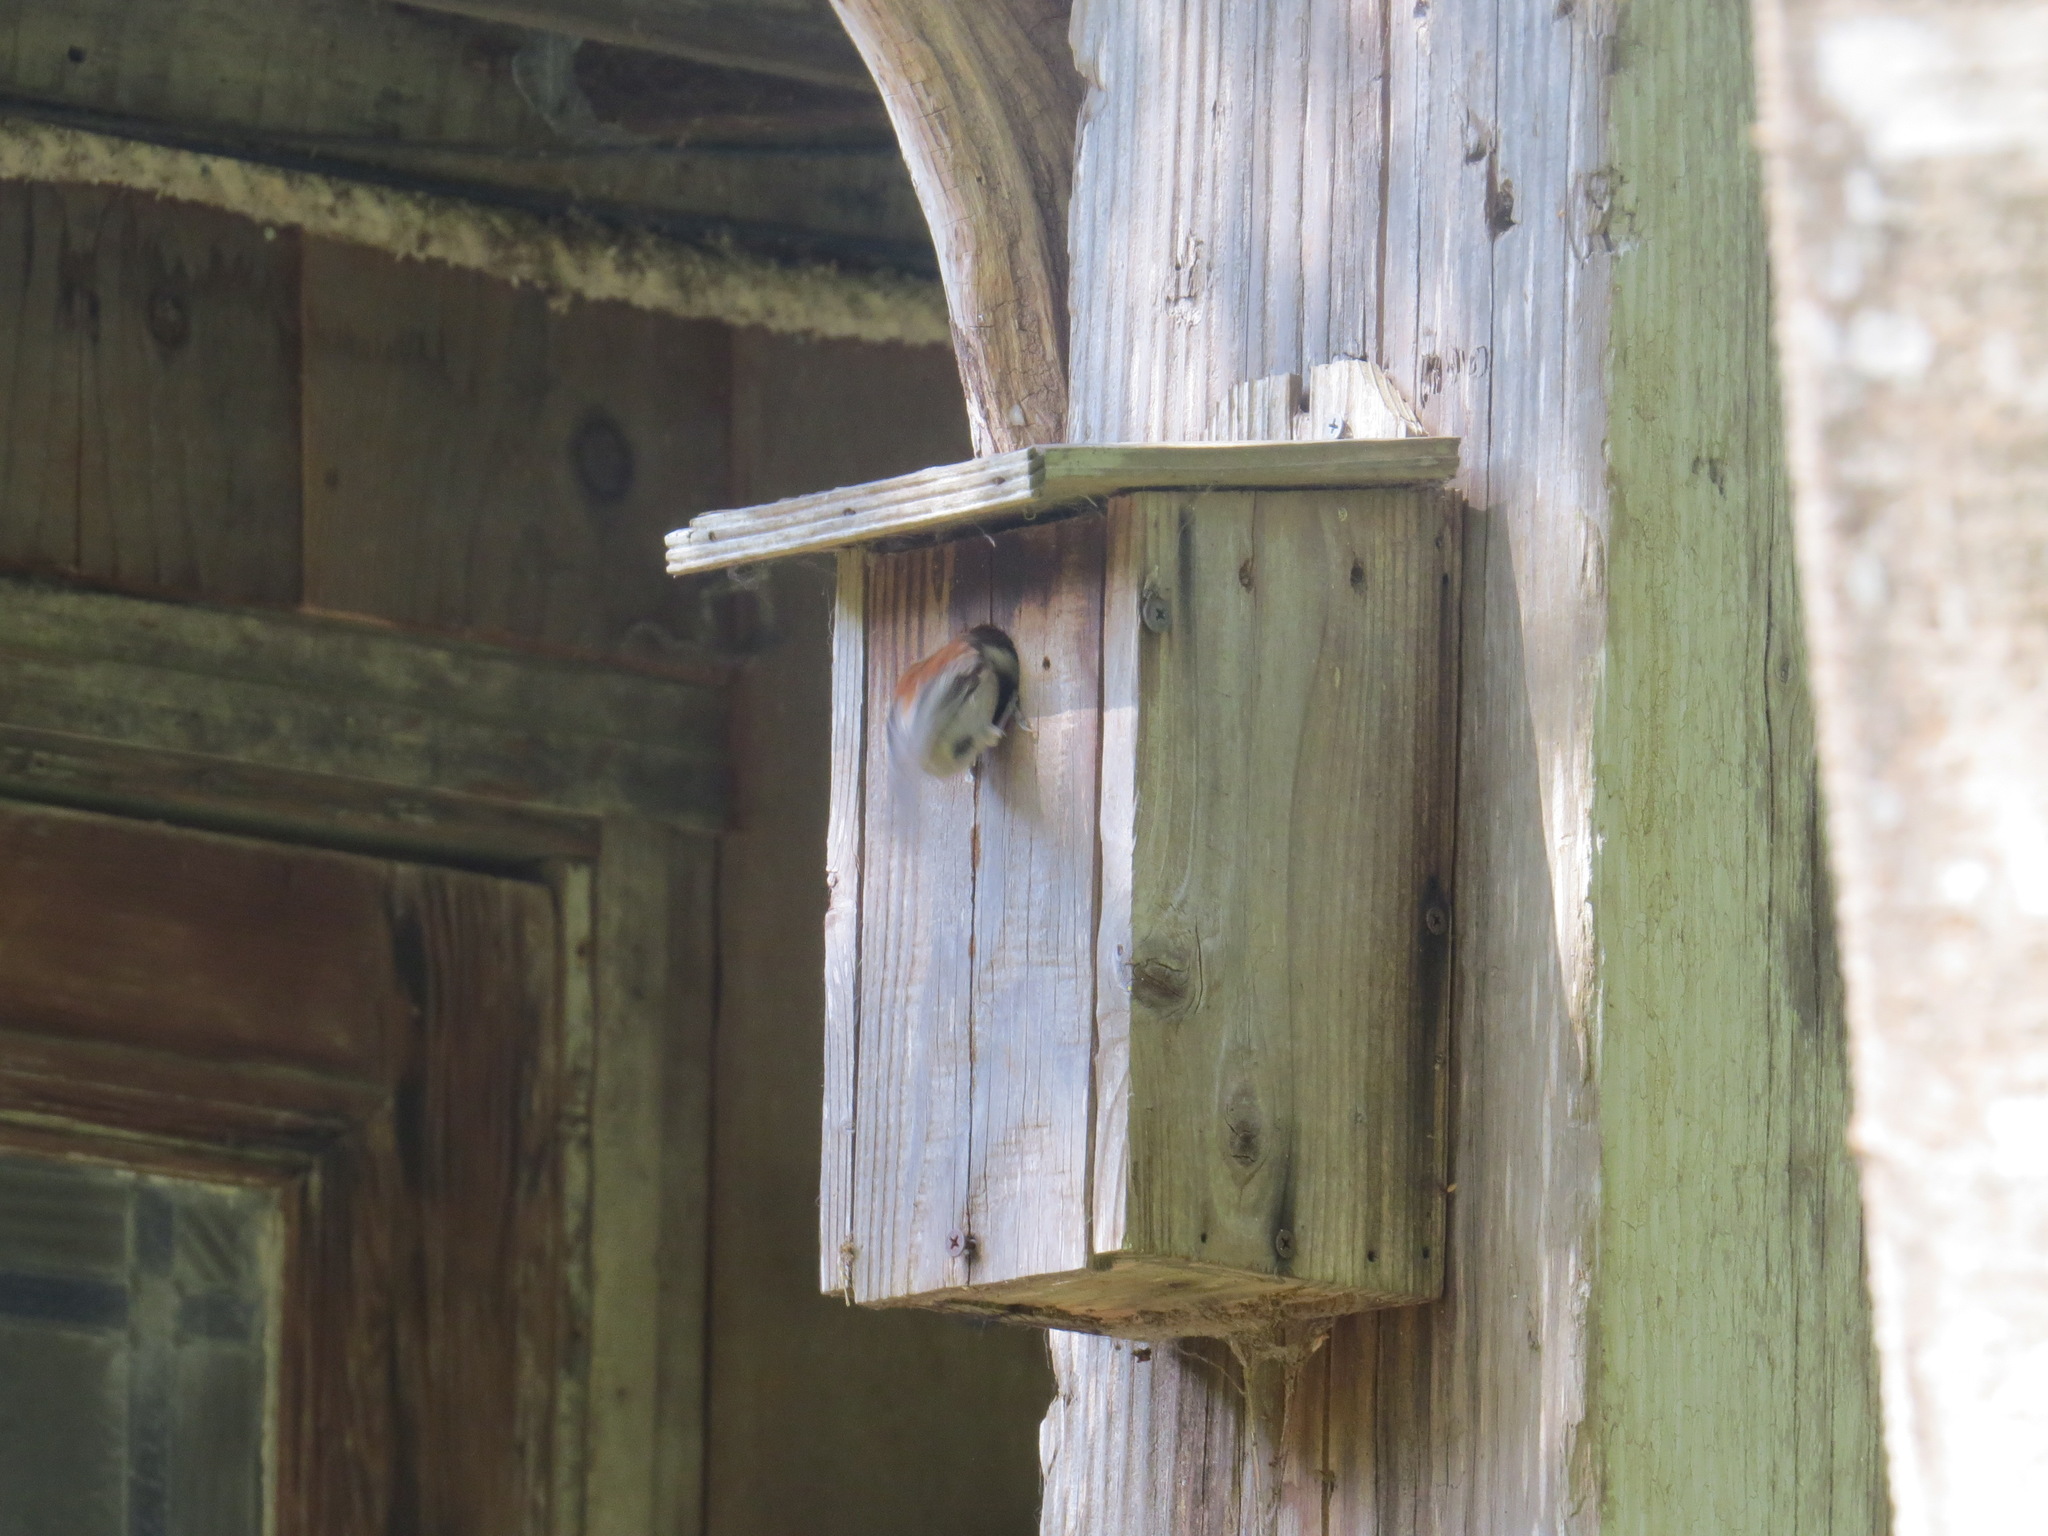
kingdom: Animalia
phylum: Chordata
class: Aves
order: Passeriformes
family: Paridae
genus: Poecile
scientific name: Poecile rufescens
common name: Chestnut-backed chickadee
